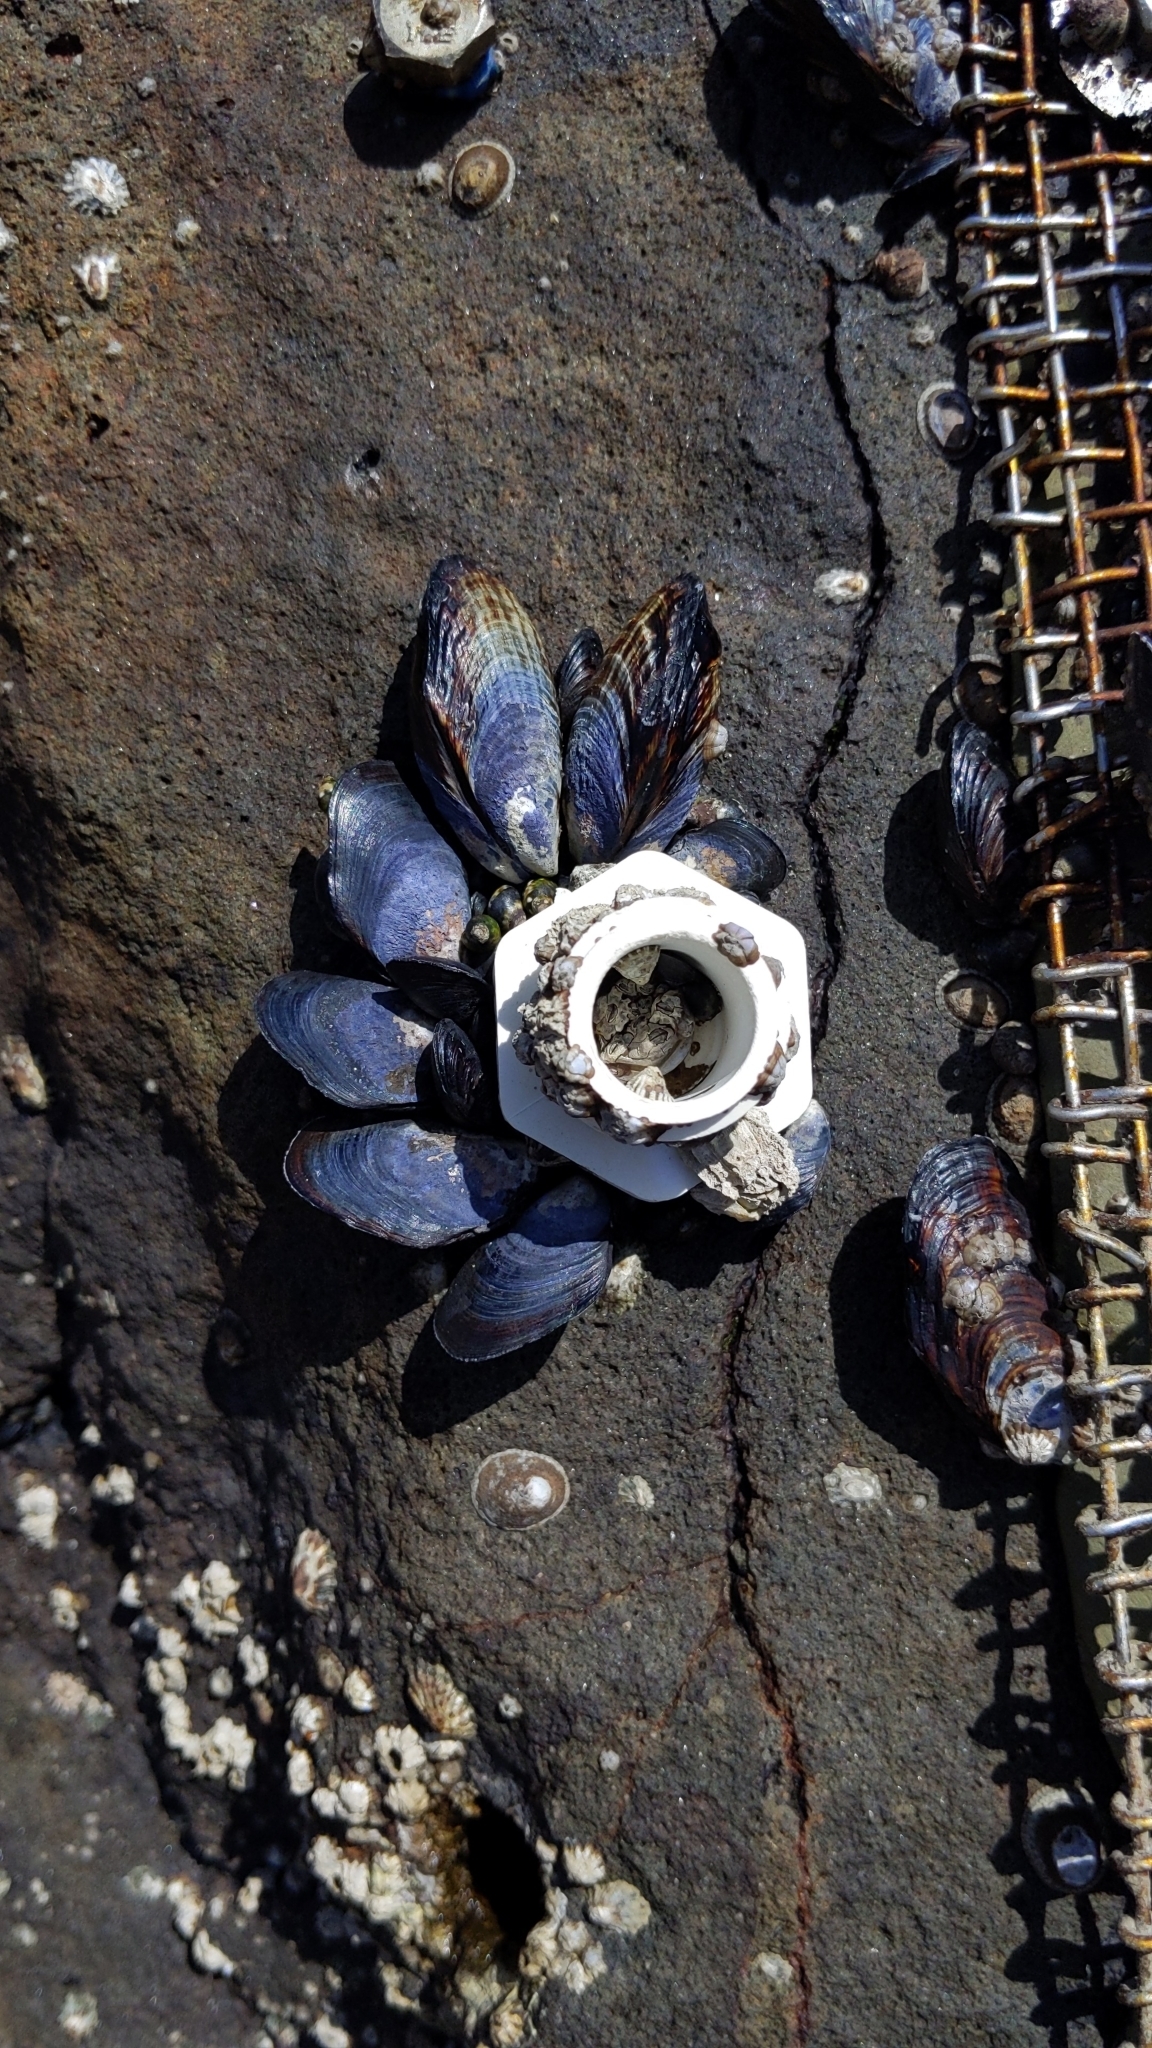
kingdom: Animalia
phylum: Mollusca
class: Bivalvia
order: Mytilida
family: Mytilidae
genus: Mytilus
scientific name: Mytilus californianus
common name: California mussel
